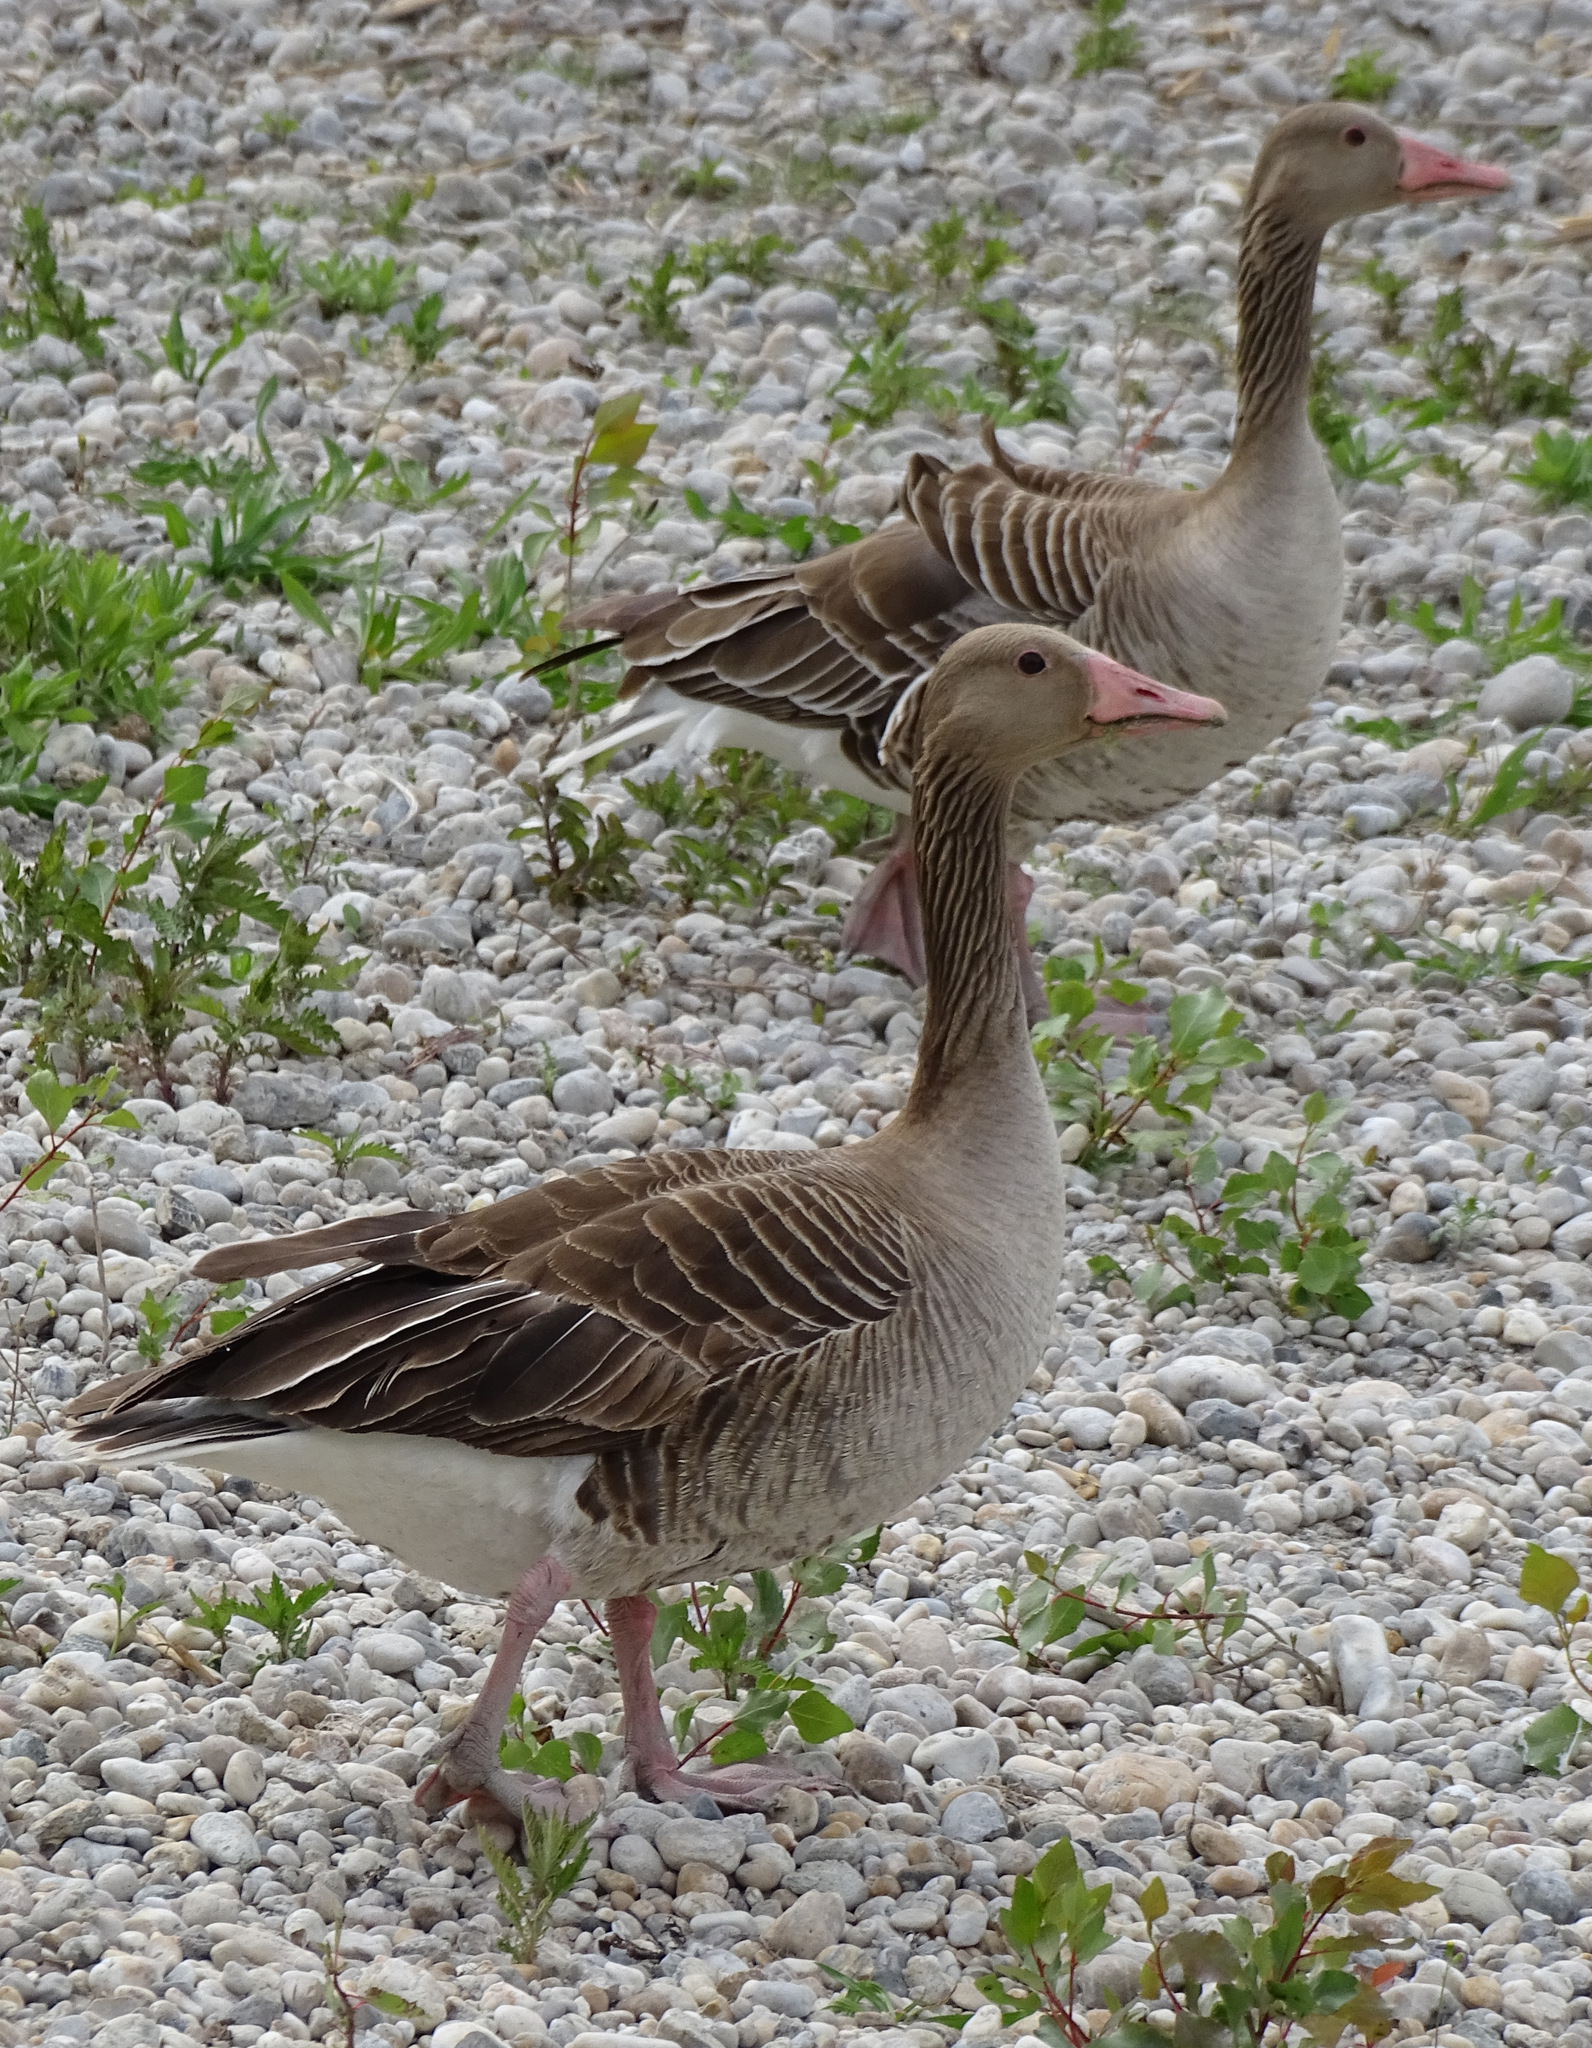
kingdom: Animalia
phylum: Chordata
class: Aves
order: Anseriformes
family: Anatidae
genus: Anser
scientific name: Anser anser
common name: Greylag goose
